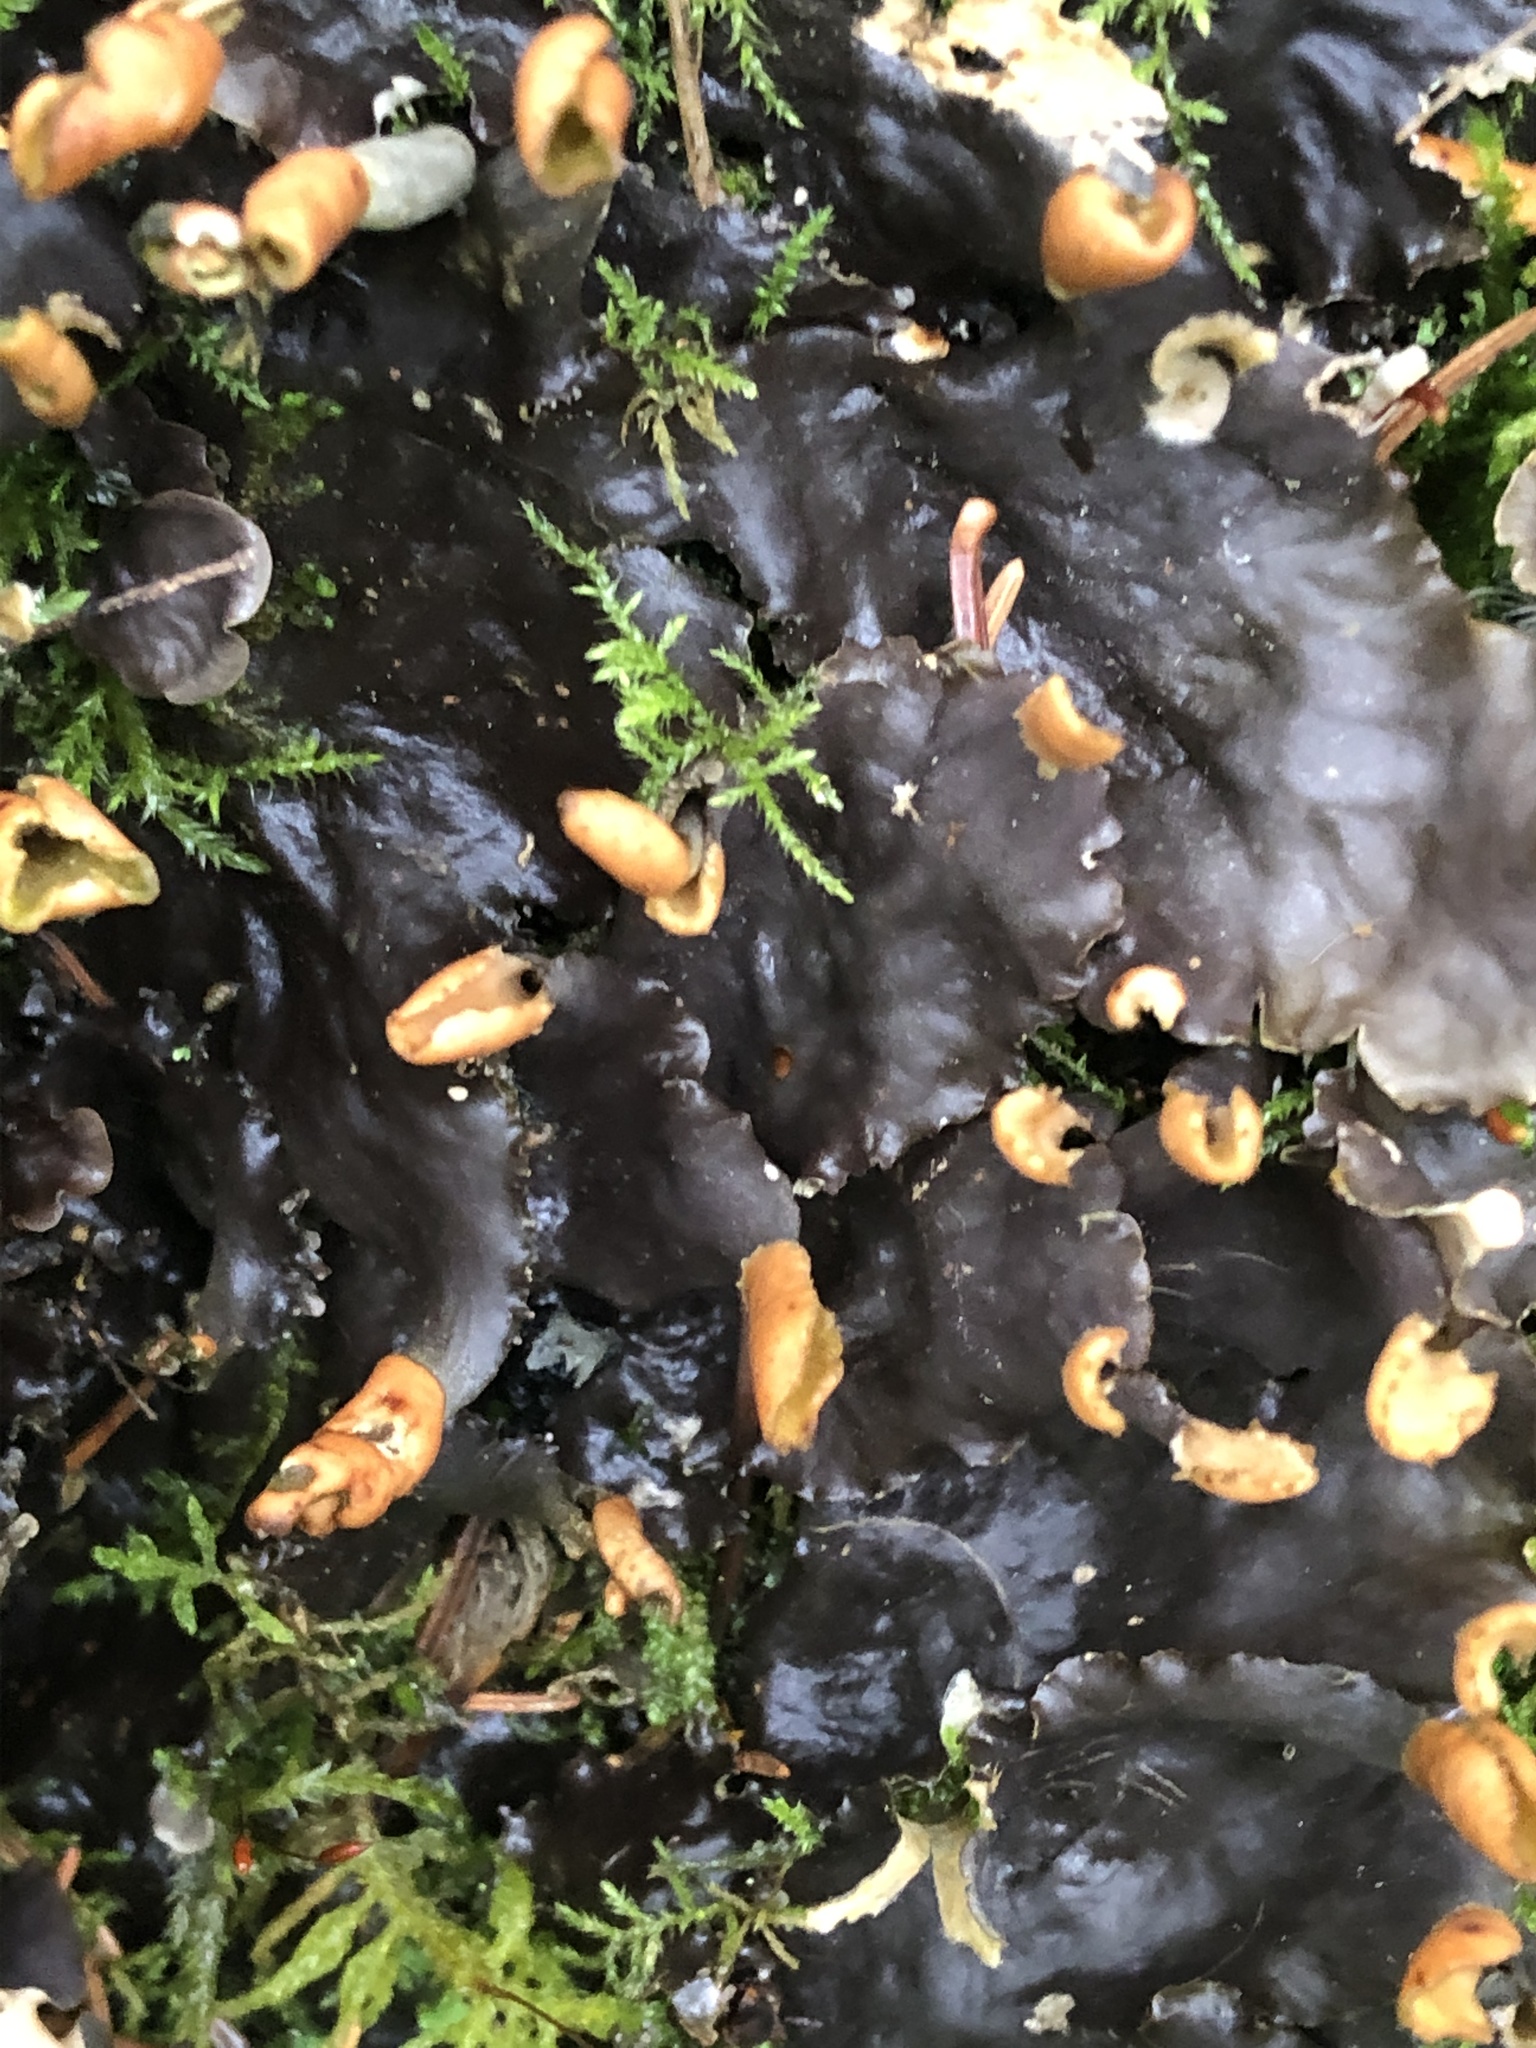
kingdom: Fungi
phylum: Ascomycota
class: Lecanoromycetes
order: Peltigerales
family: Peltigeraceae
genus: Peltigera
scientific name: Peltigera polydactylon
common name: Many-fruited pelt lichen
